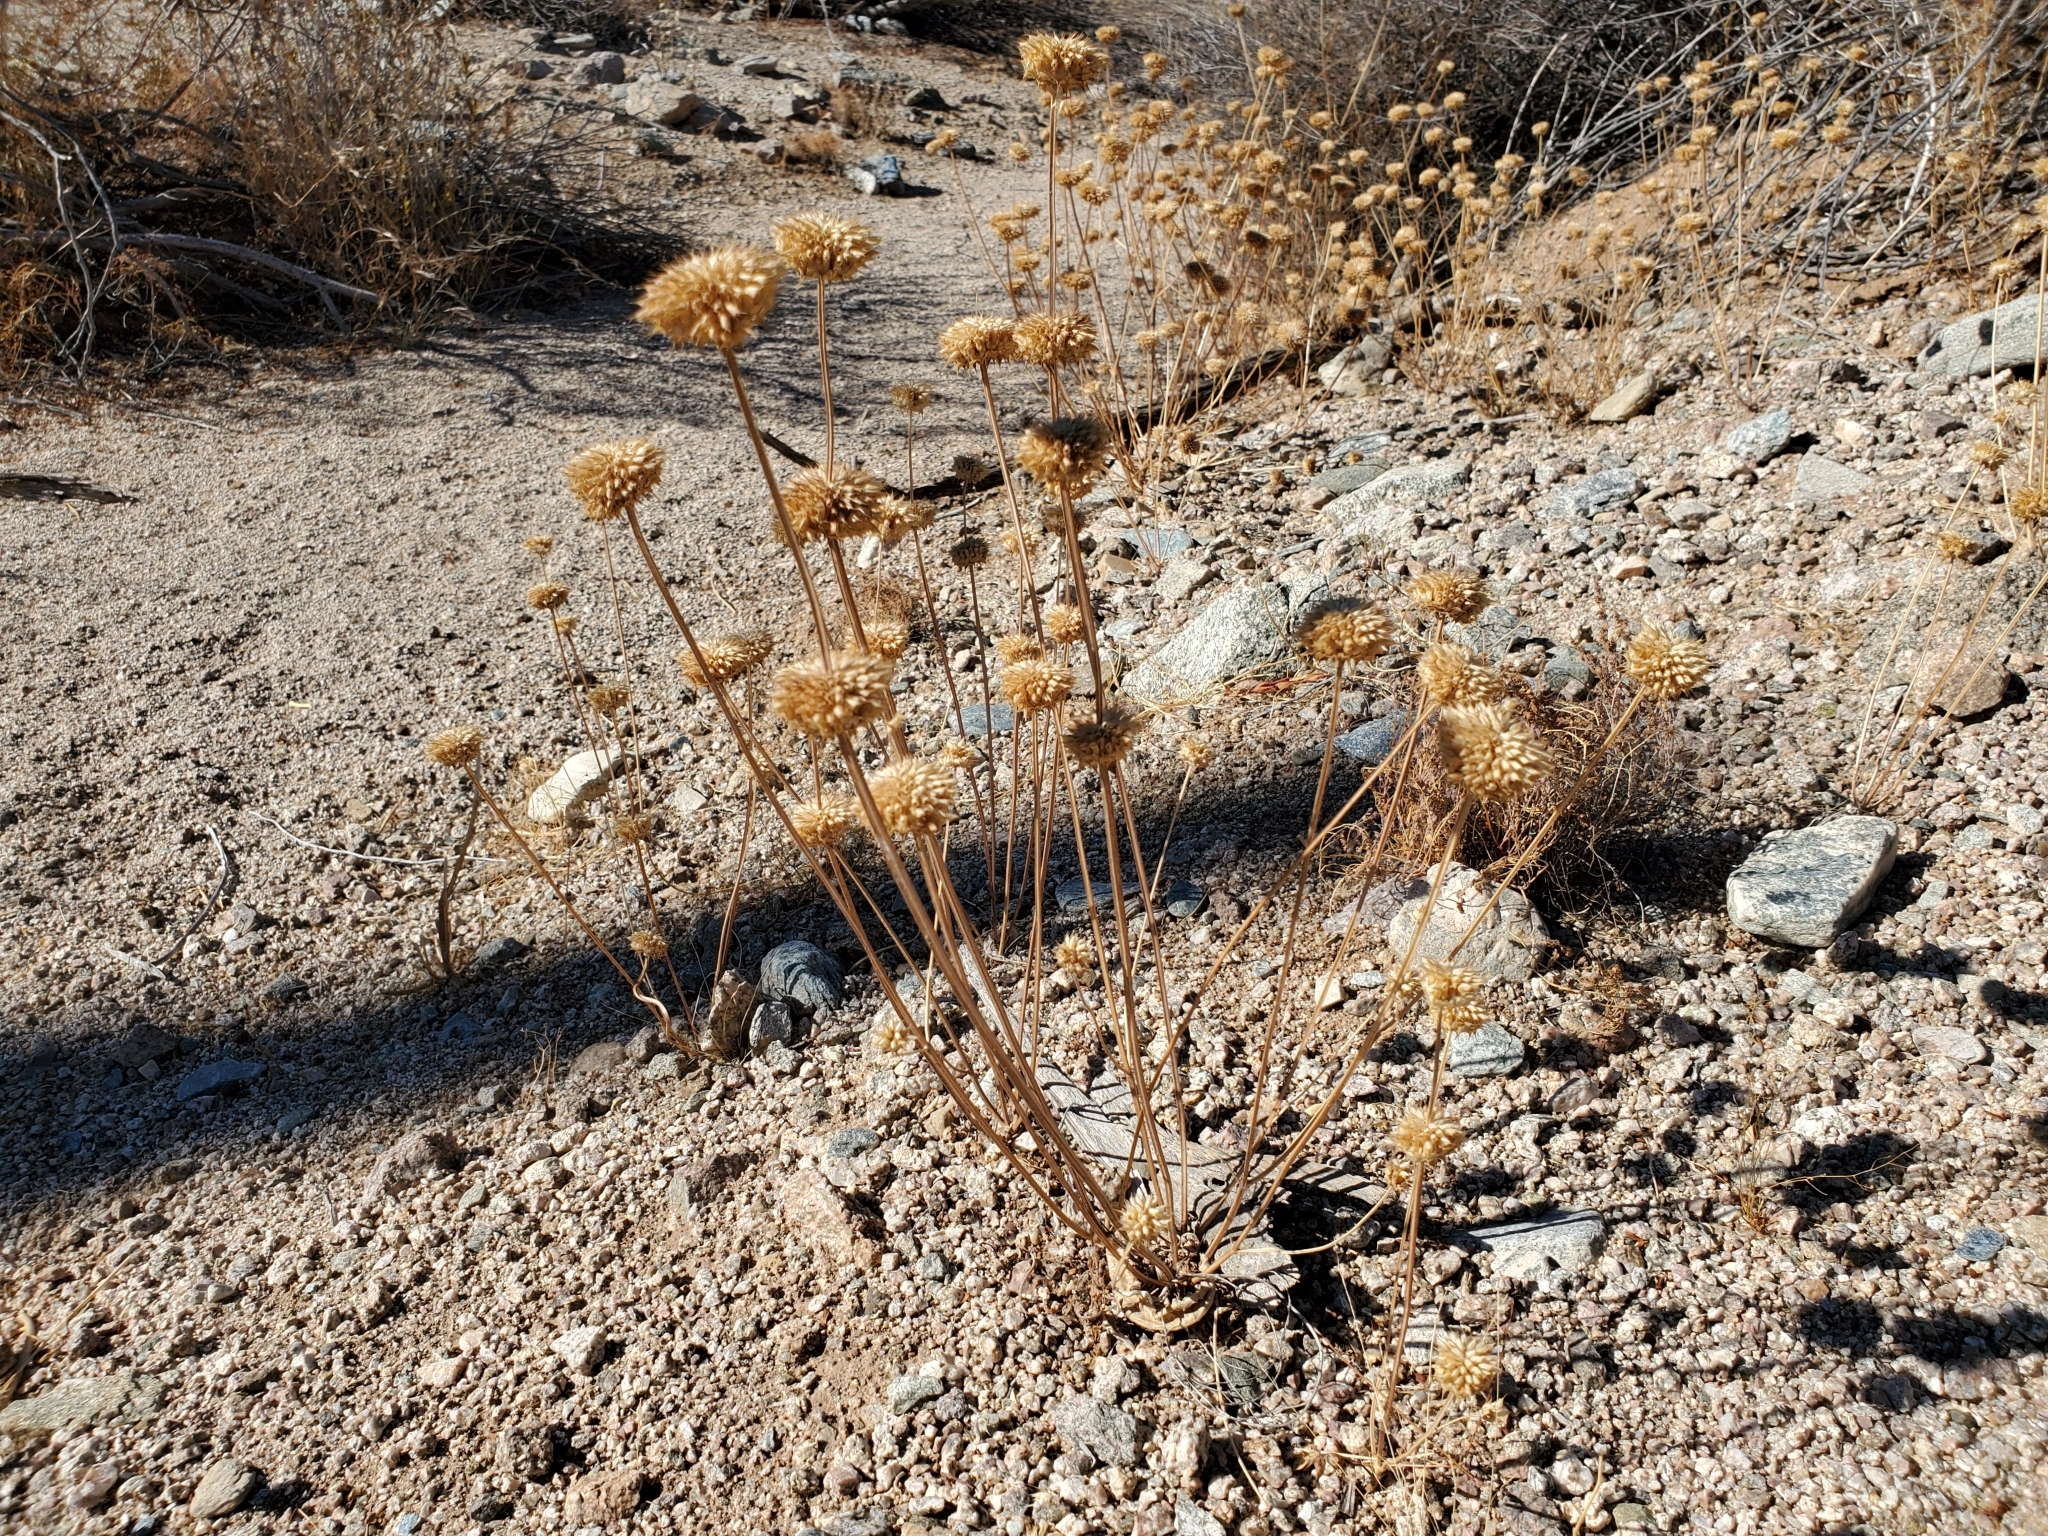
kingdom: Plantae
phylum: Tracheophyta
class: Magnoliopsida
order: Lamiales
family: Lamiaceae
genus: Salvia
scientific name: Salvia columbariae
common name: Chia
